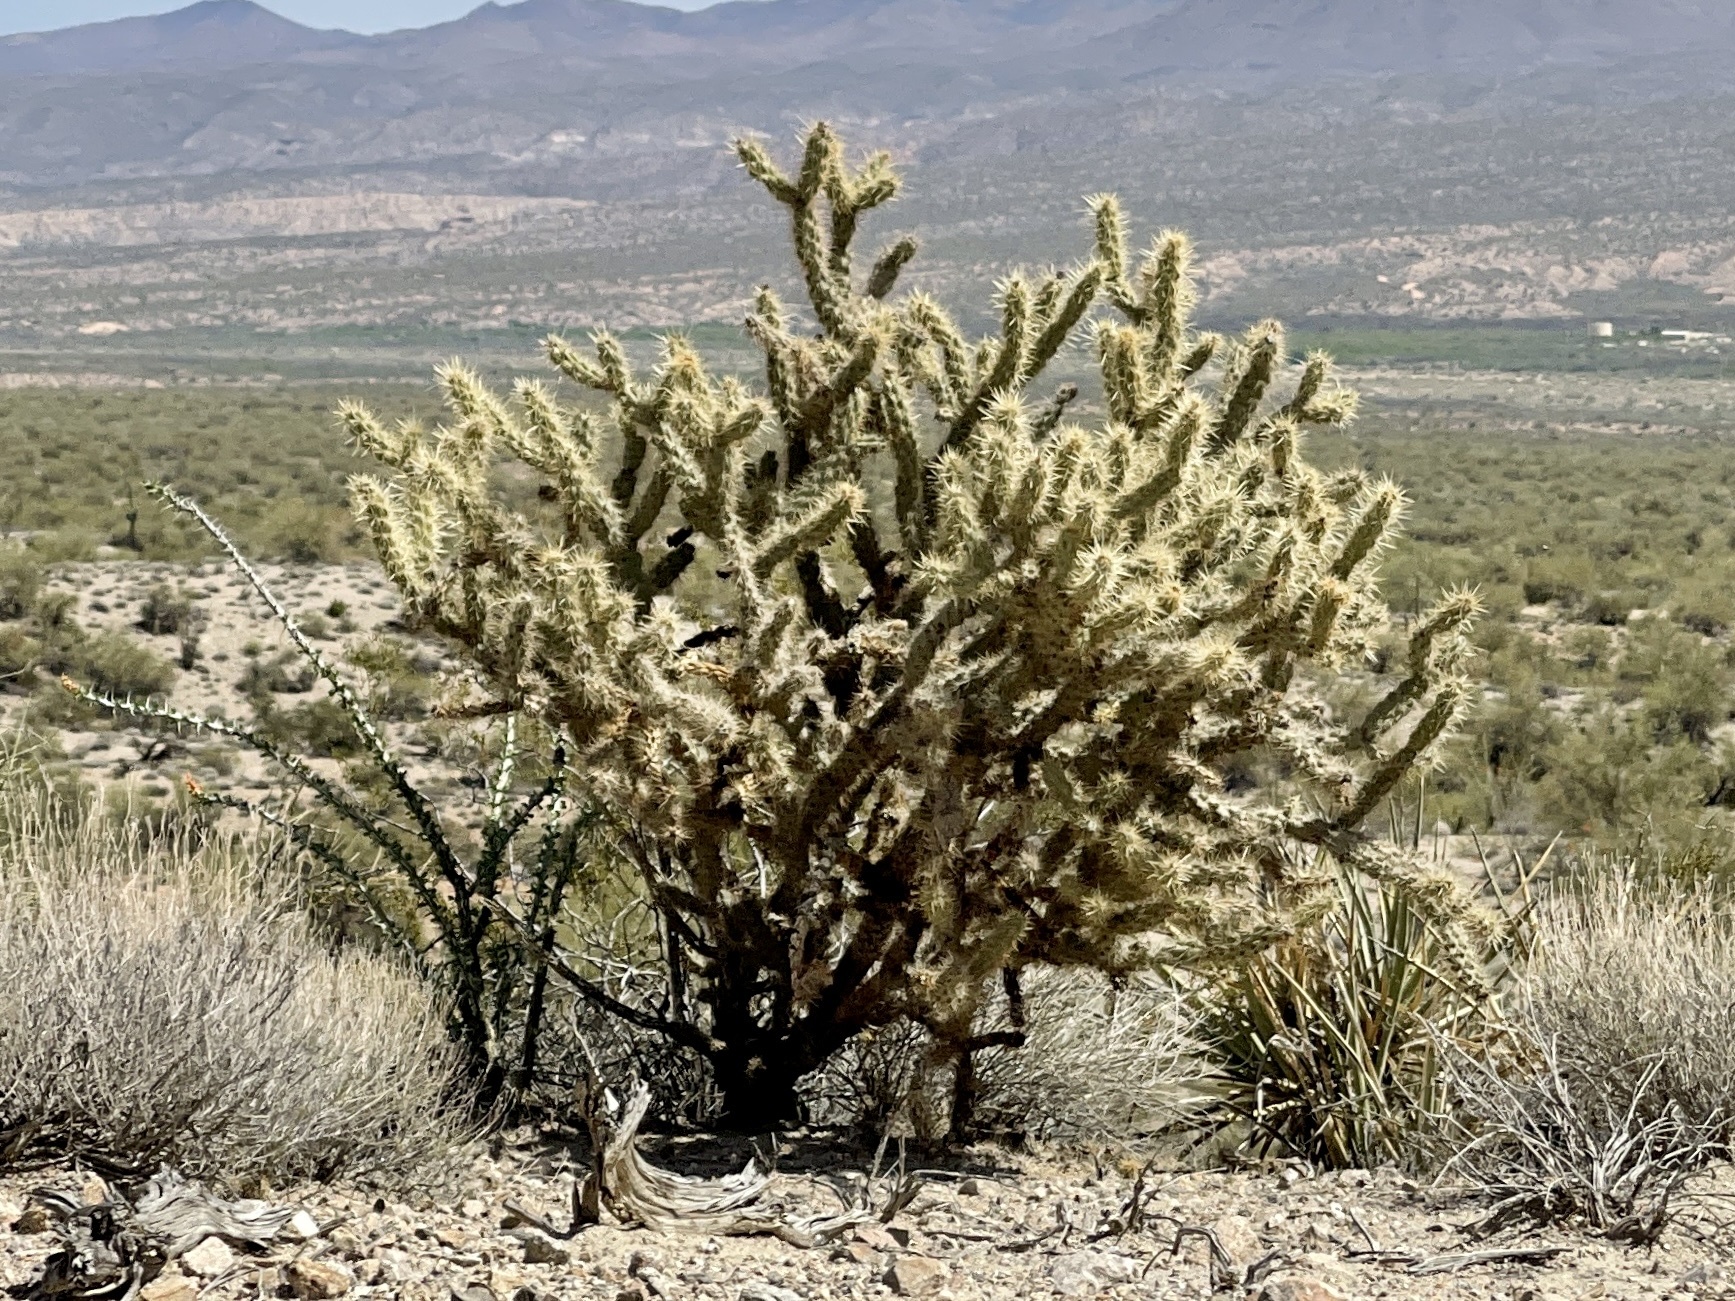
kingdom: Plantae
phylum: Tracheophyta
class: Magnoliopsida
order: Caryophyllales
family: Cactaceae
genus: Cylindropuntia
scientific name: Cylindropuntia acanthocarpa
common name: Buckhorn cholla
